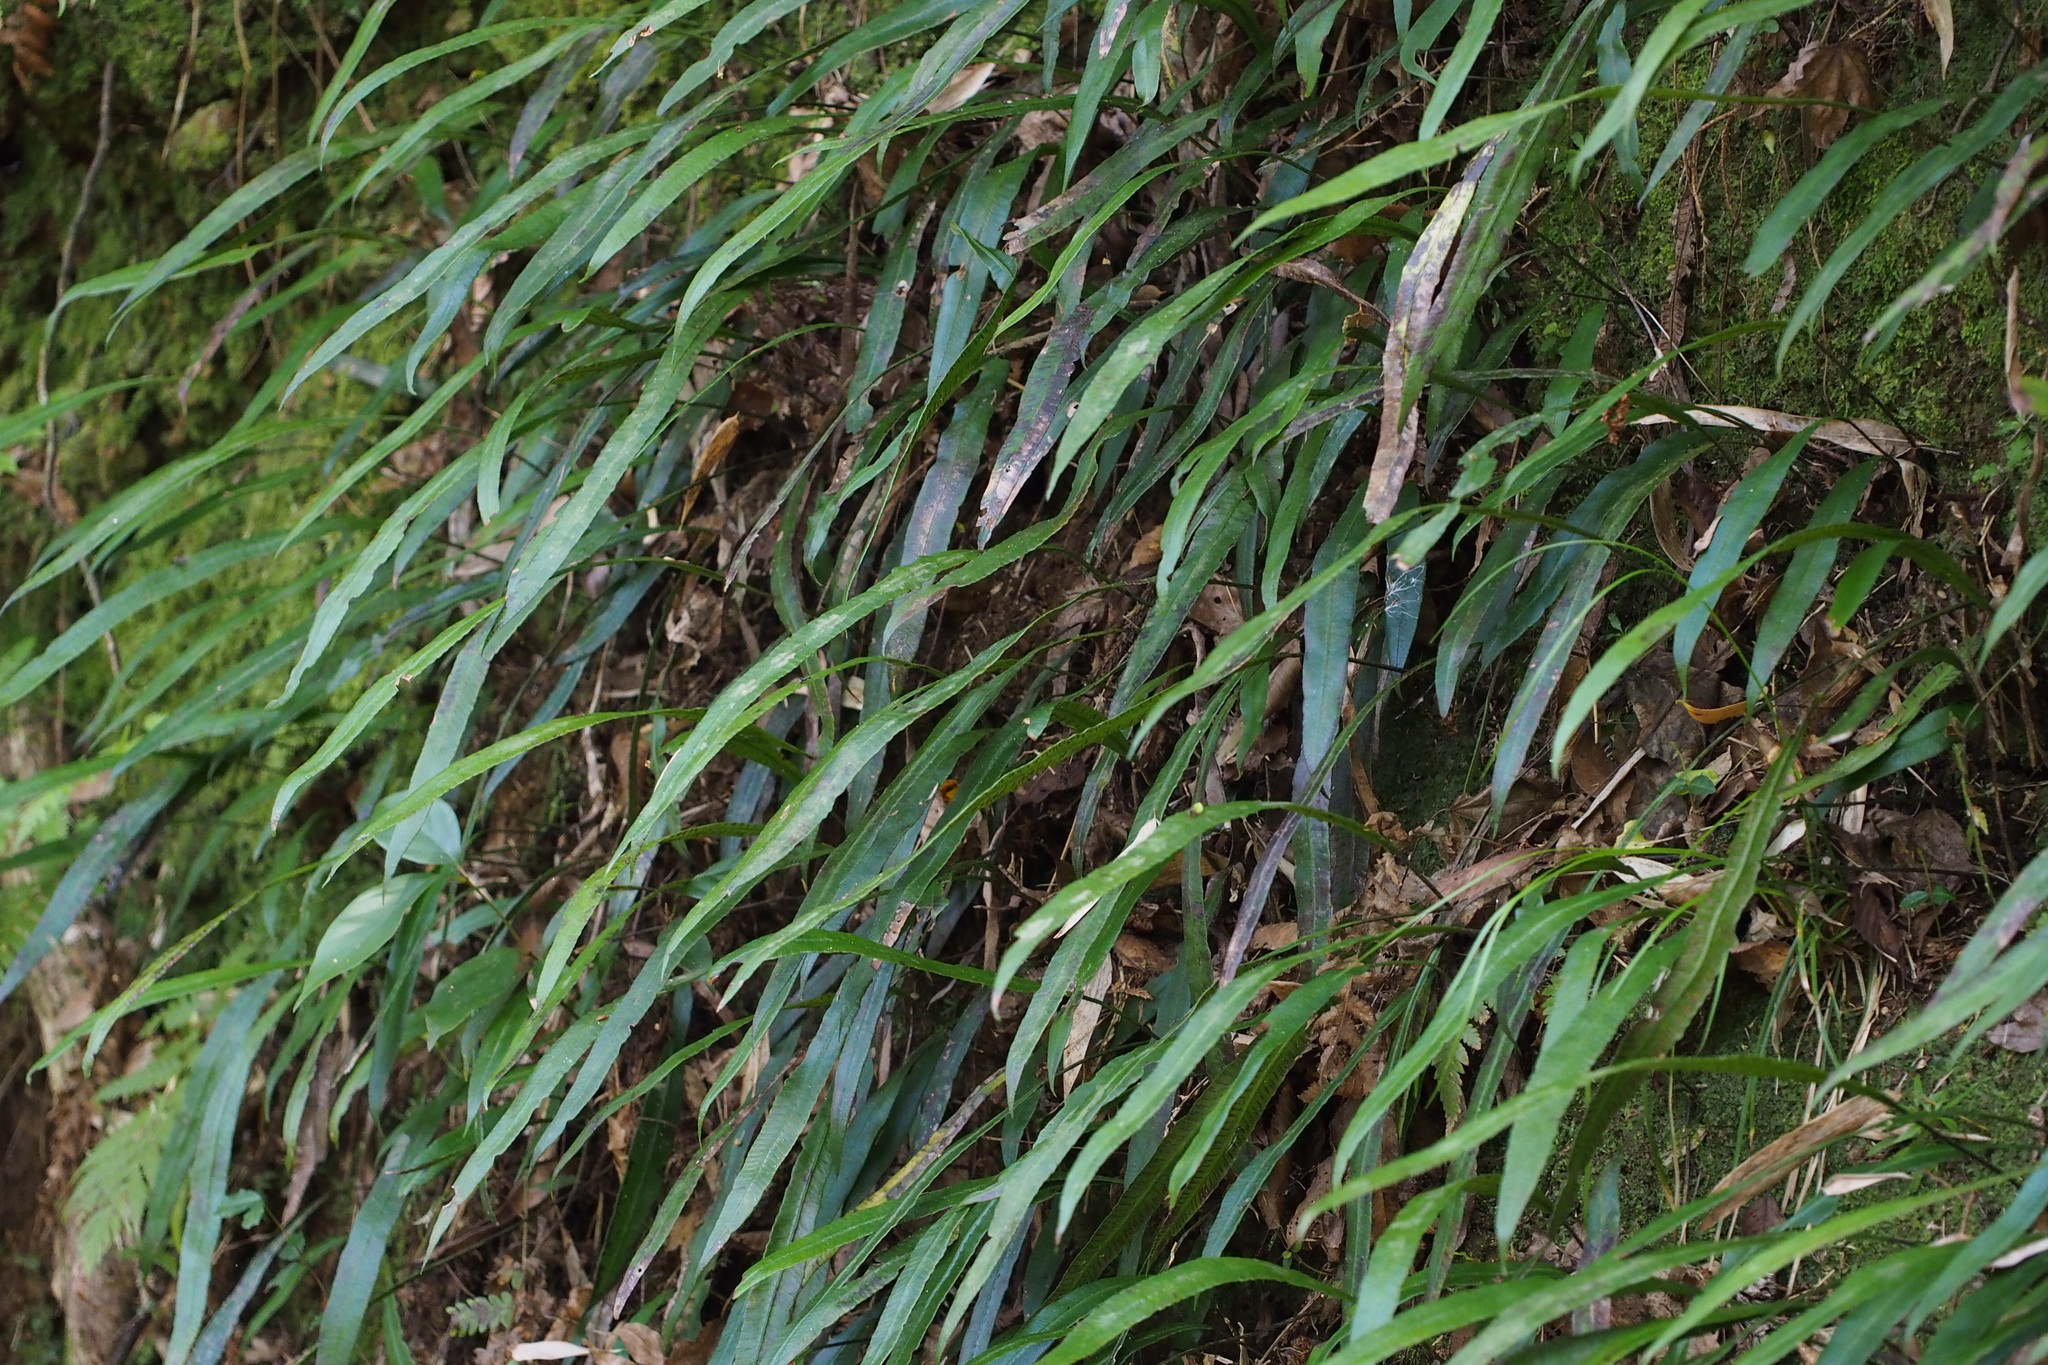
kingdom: Plantae
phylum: Tracheophyta
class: Polypodiopsida
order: Polypodiales
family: Athyriaceae
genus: Deparia
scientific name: Deparia lancea
